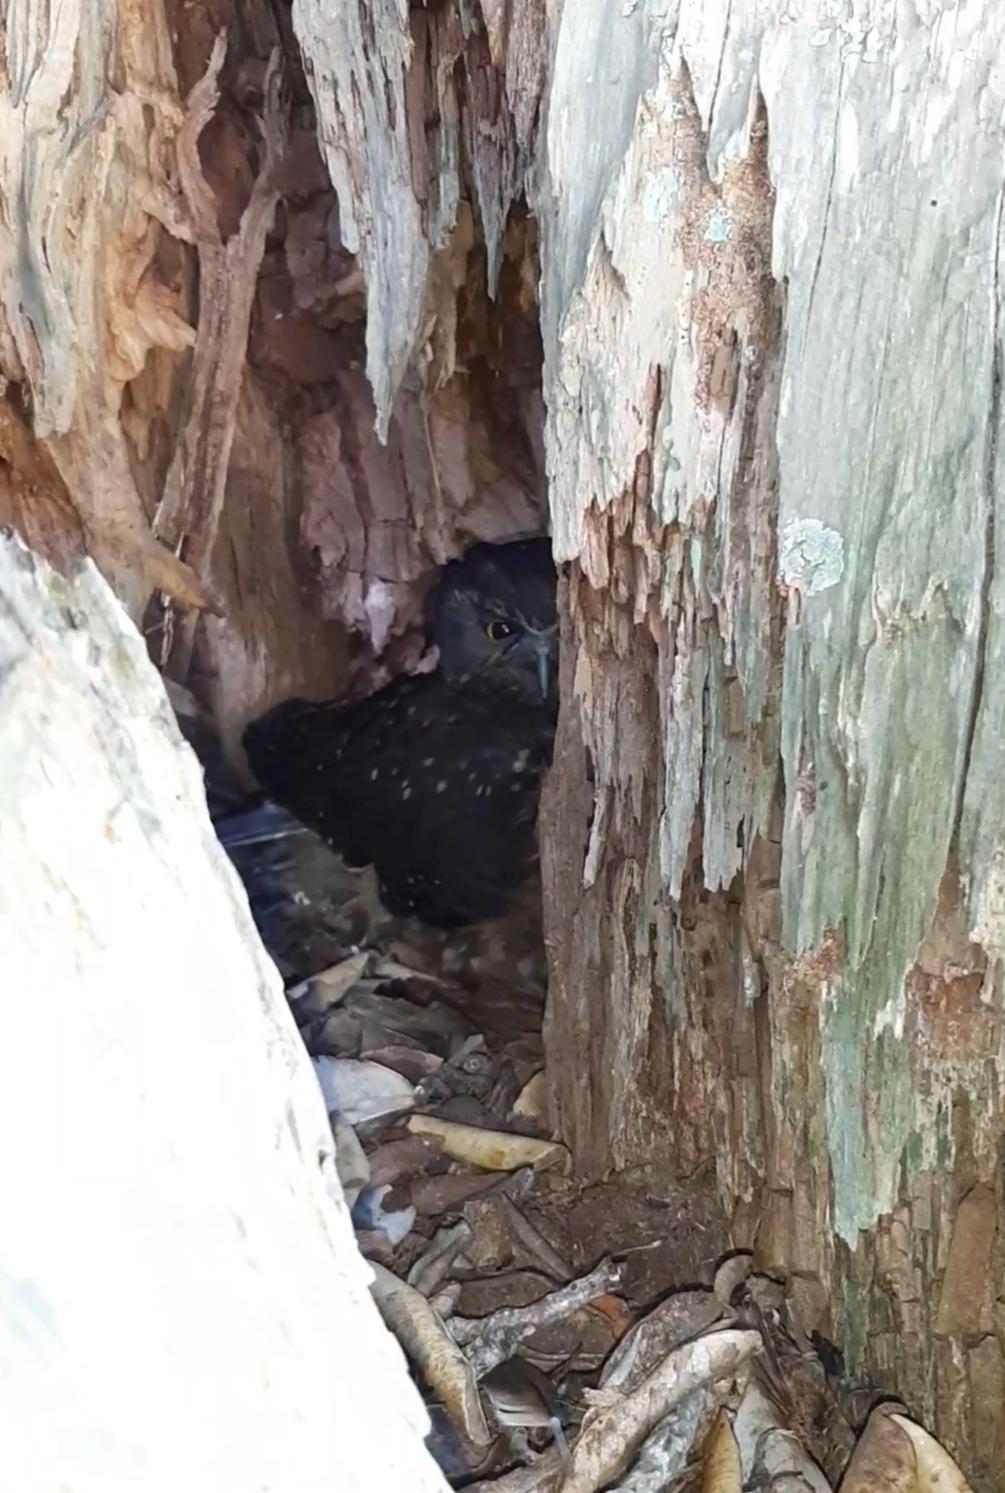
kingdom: Animalia
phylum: Chordata
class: Aves
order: Strigiformes
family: Strigidae
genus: Ninox
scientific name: Ninox novaeseelandiae
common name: Morepork
